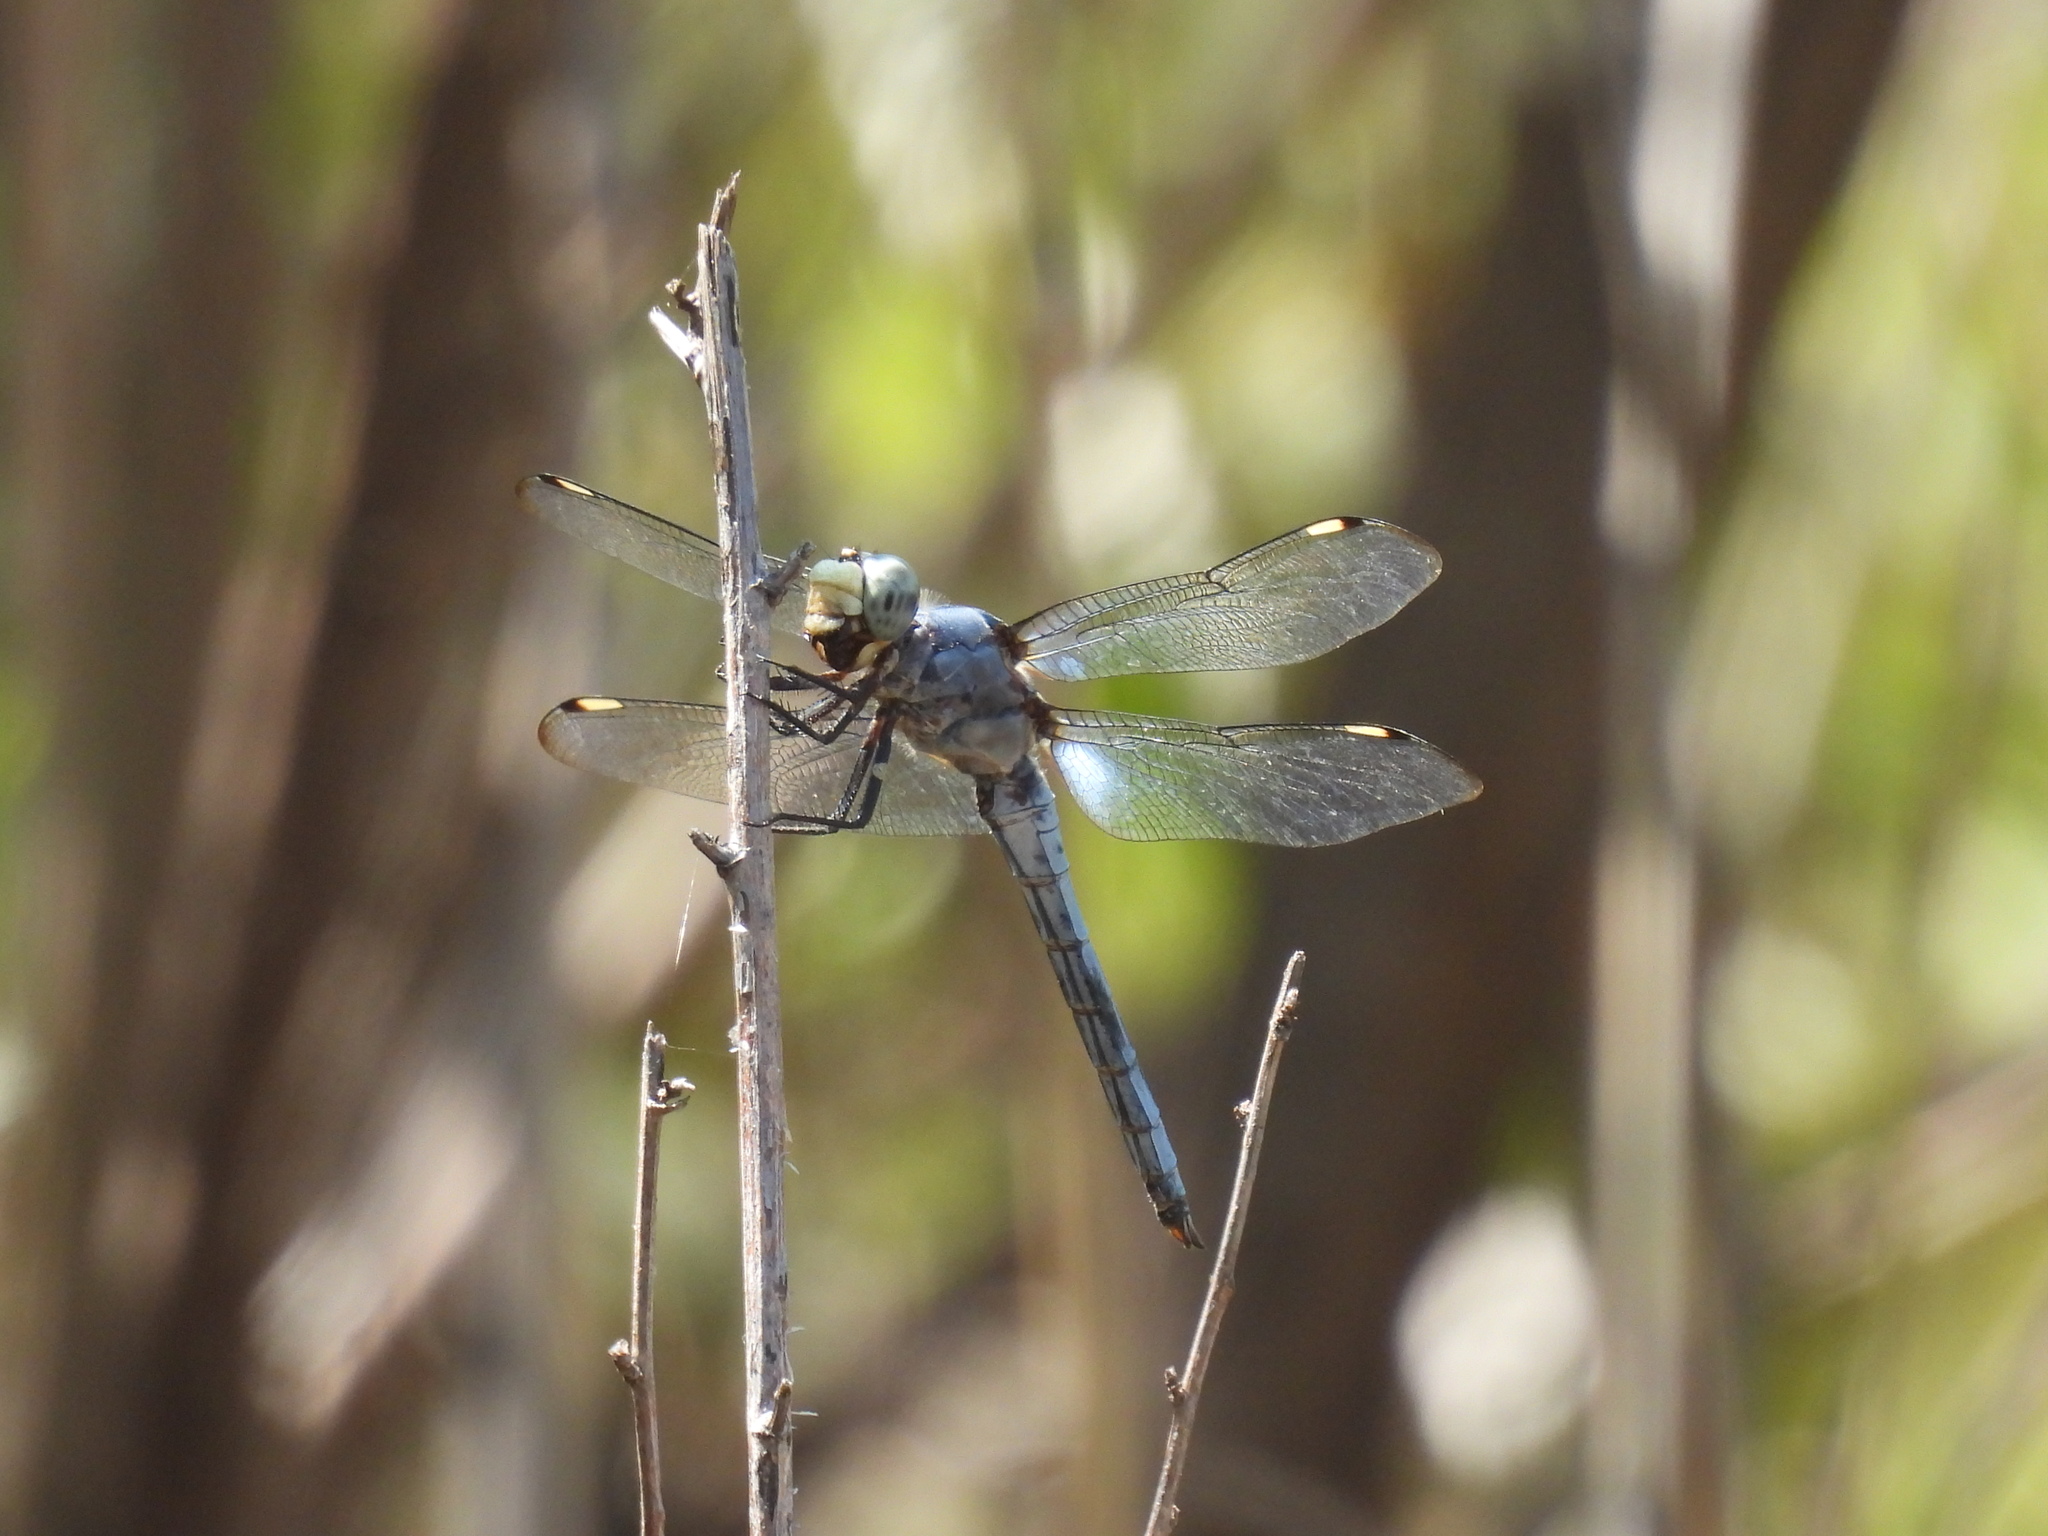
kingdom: Animalia
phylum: Arthropoda
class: Insecta
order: Odonata
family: Libellulidae
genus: Libellula
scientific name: Libellula comanche
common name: Comanche skimmer
